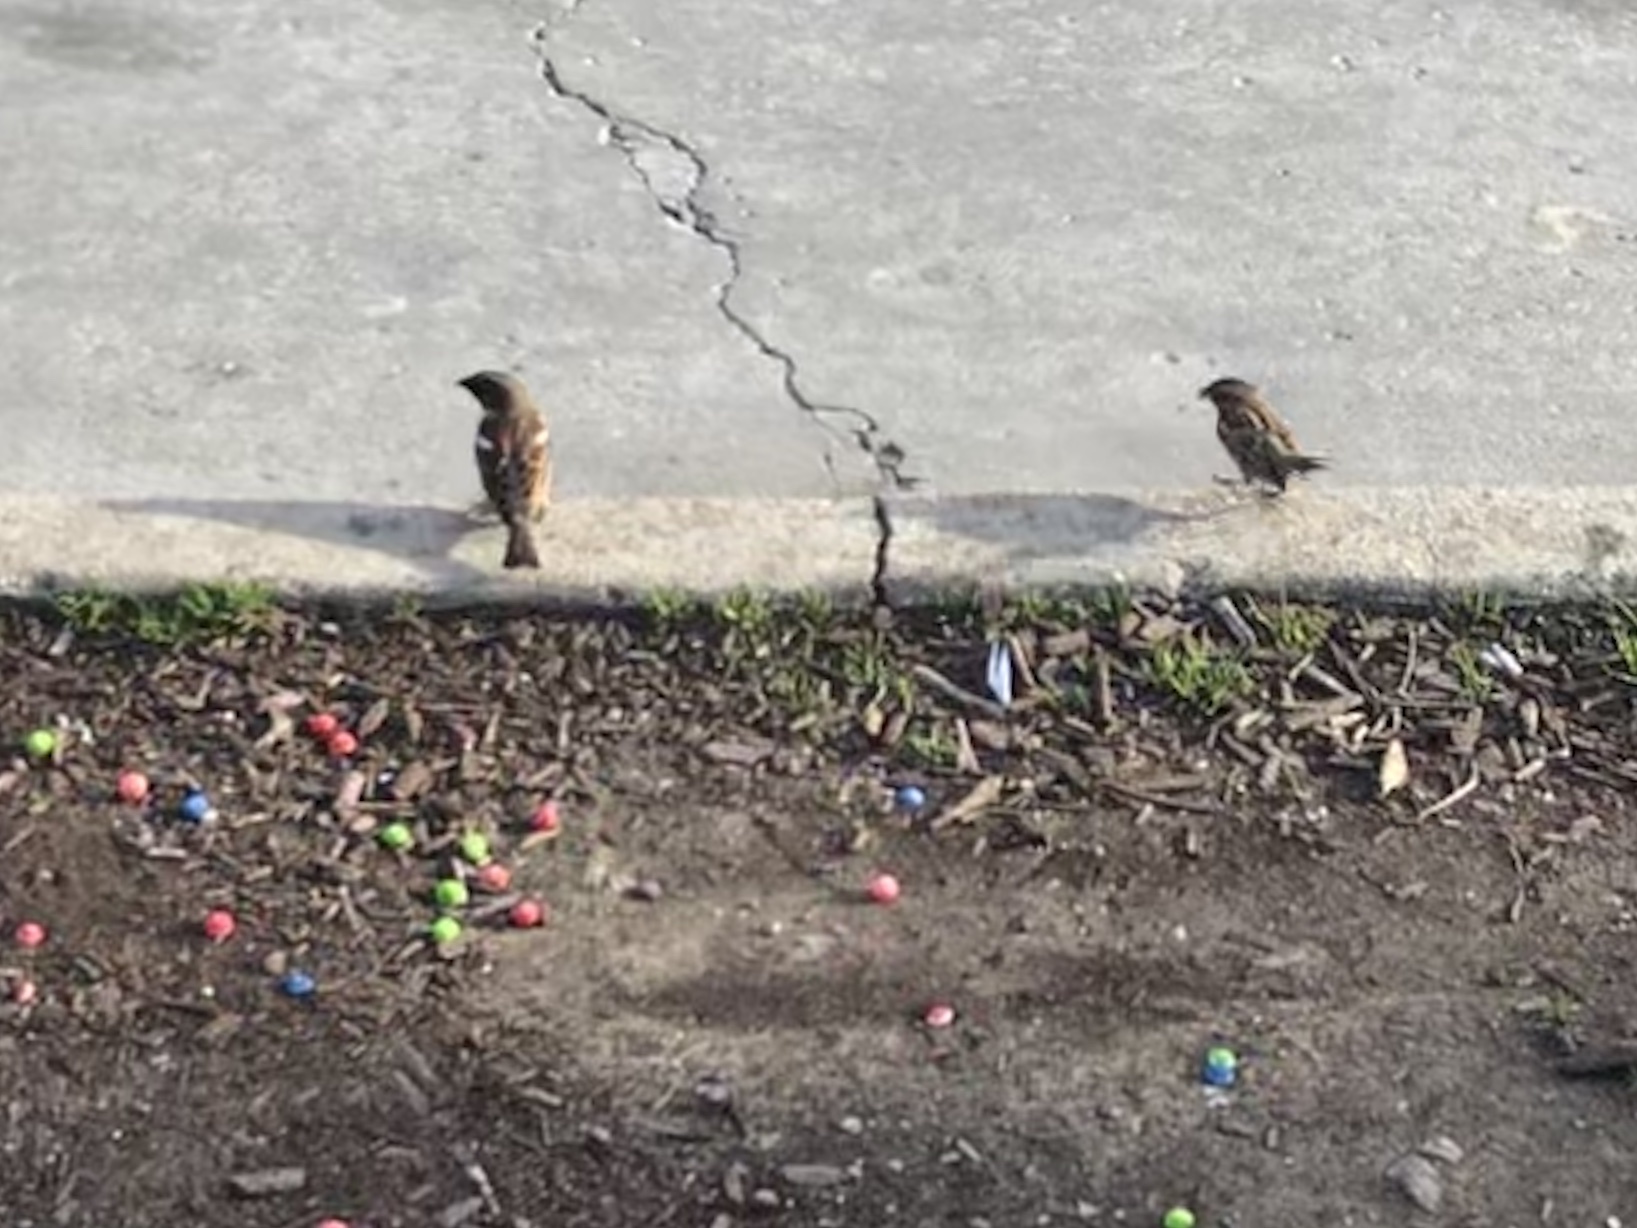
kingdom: Animalia
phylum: Chordata
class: Aves
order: Passeriformes
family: Passeridae
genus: Passer
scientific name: Passer domesticus
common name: House sparrow
